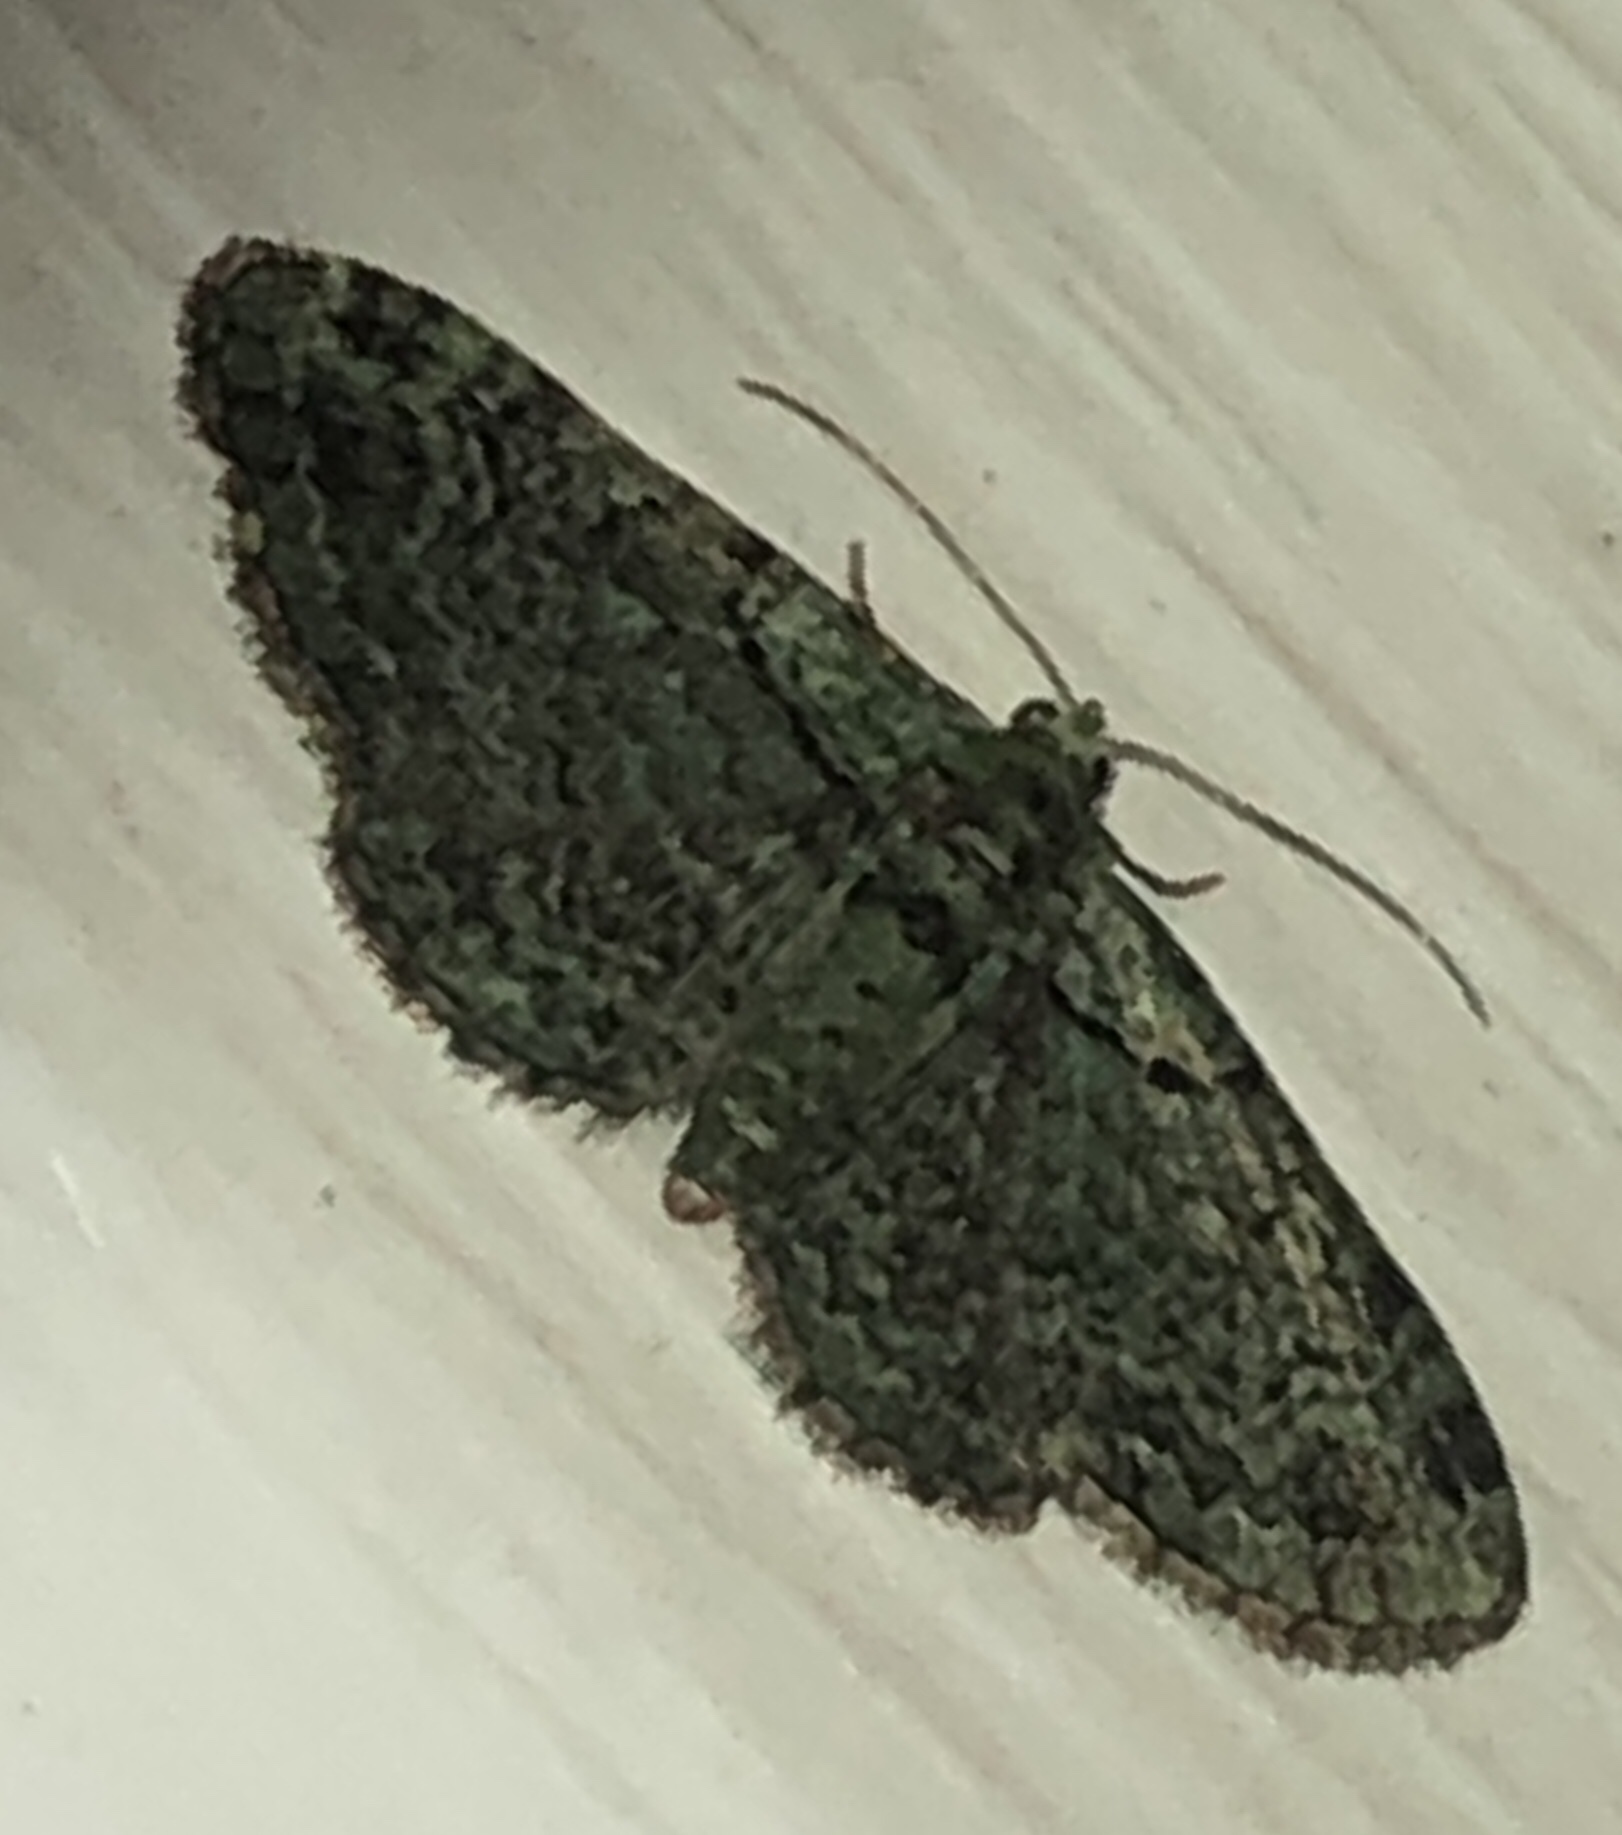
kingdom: Animalia
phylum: Arthropoda
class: Insecta
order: Lepidoptera
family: Geometridae
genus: Pasiphila
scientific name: Pasiphila rectangulata
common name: Green pug
